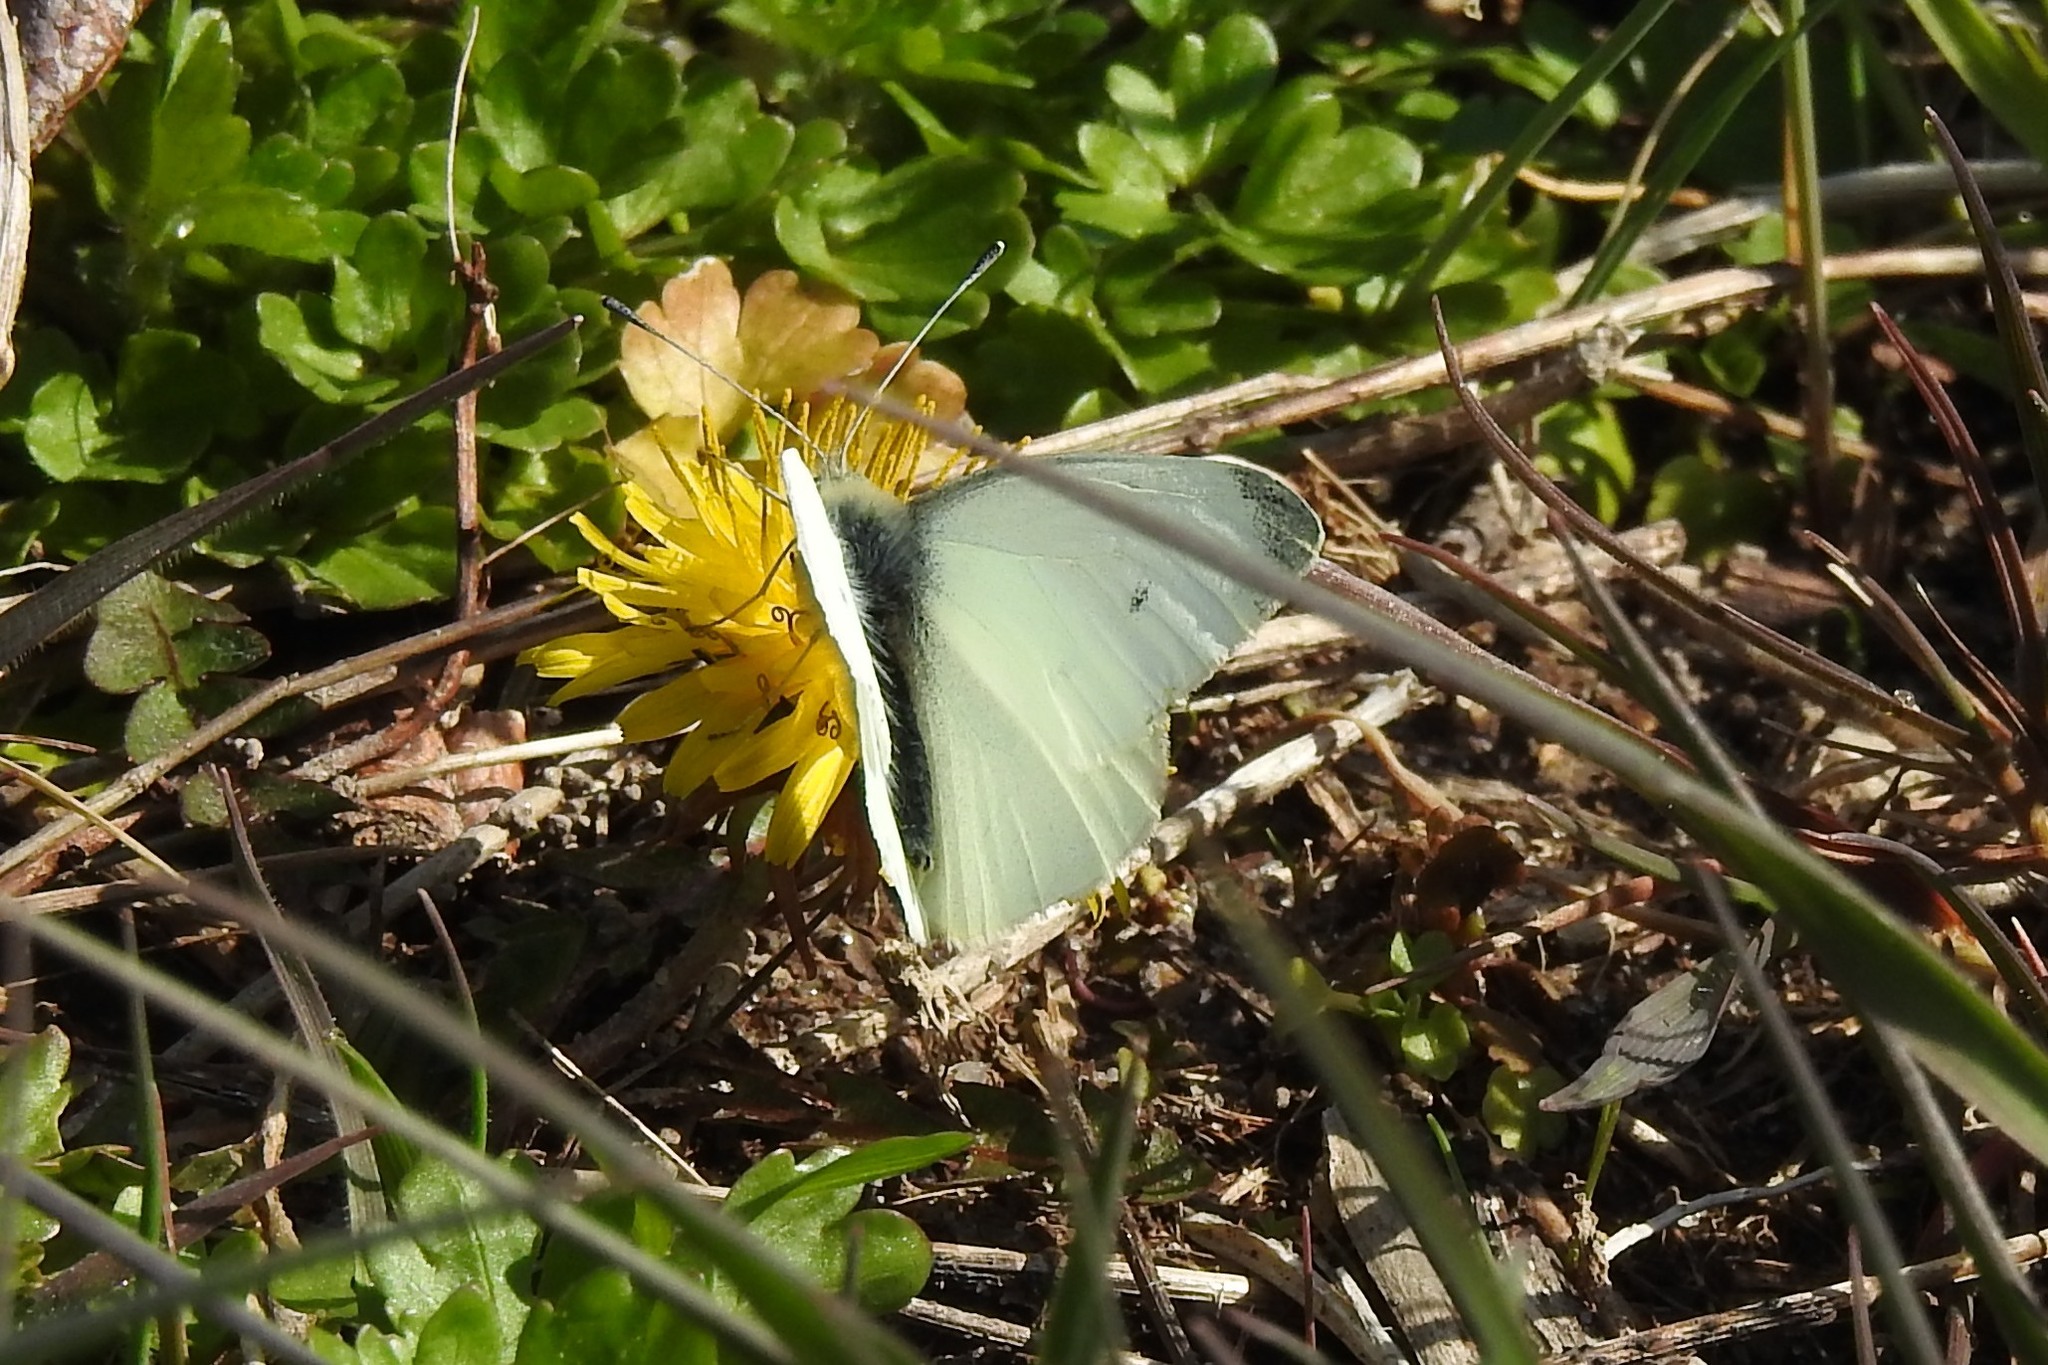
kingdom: Animalia
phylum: Arthropoda
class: Insecta
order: Lepidoptera
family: Pieridae
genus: Pieris
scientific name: Pieris rapae
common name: Small white
